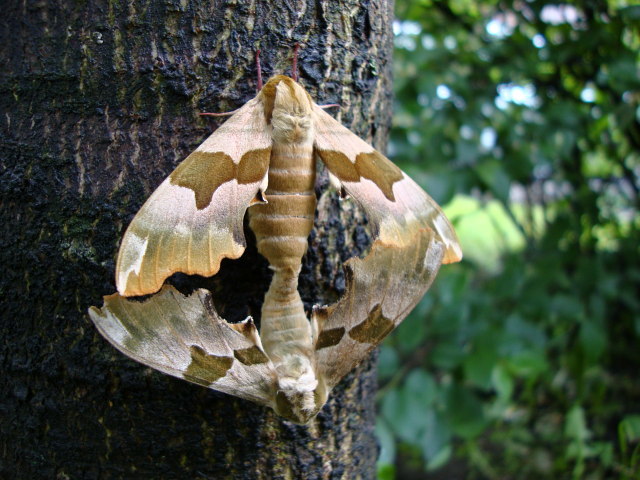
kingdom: Animalia
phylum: Arthropoda
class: Insecta
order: Lepidoptera
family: Sphingidae
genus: Mimas
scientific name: Mimas tiliae
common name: Lime hawk-moth
